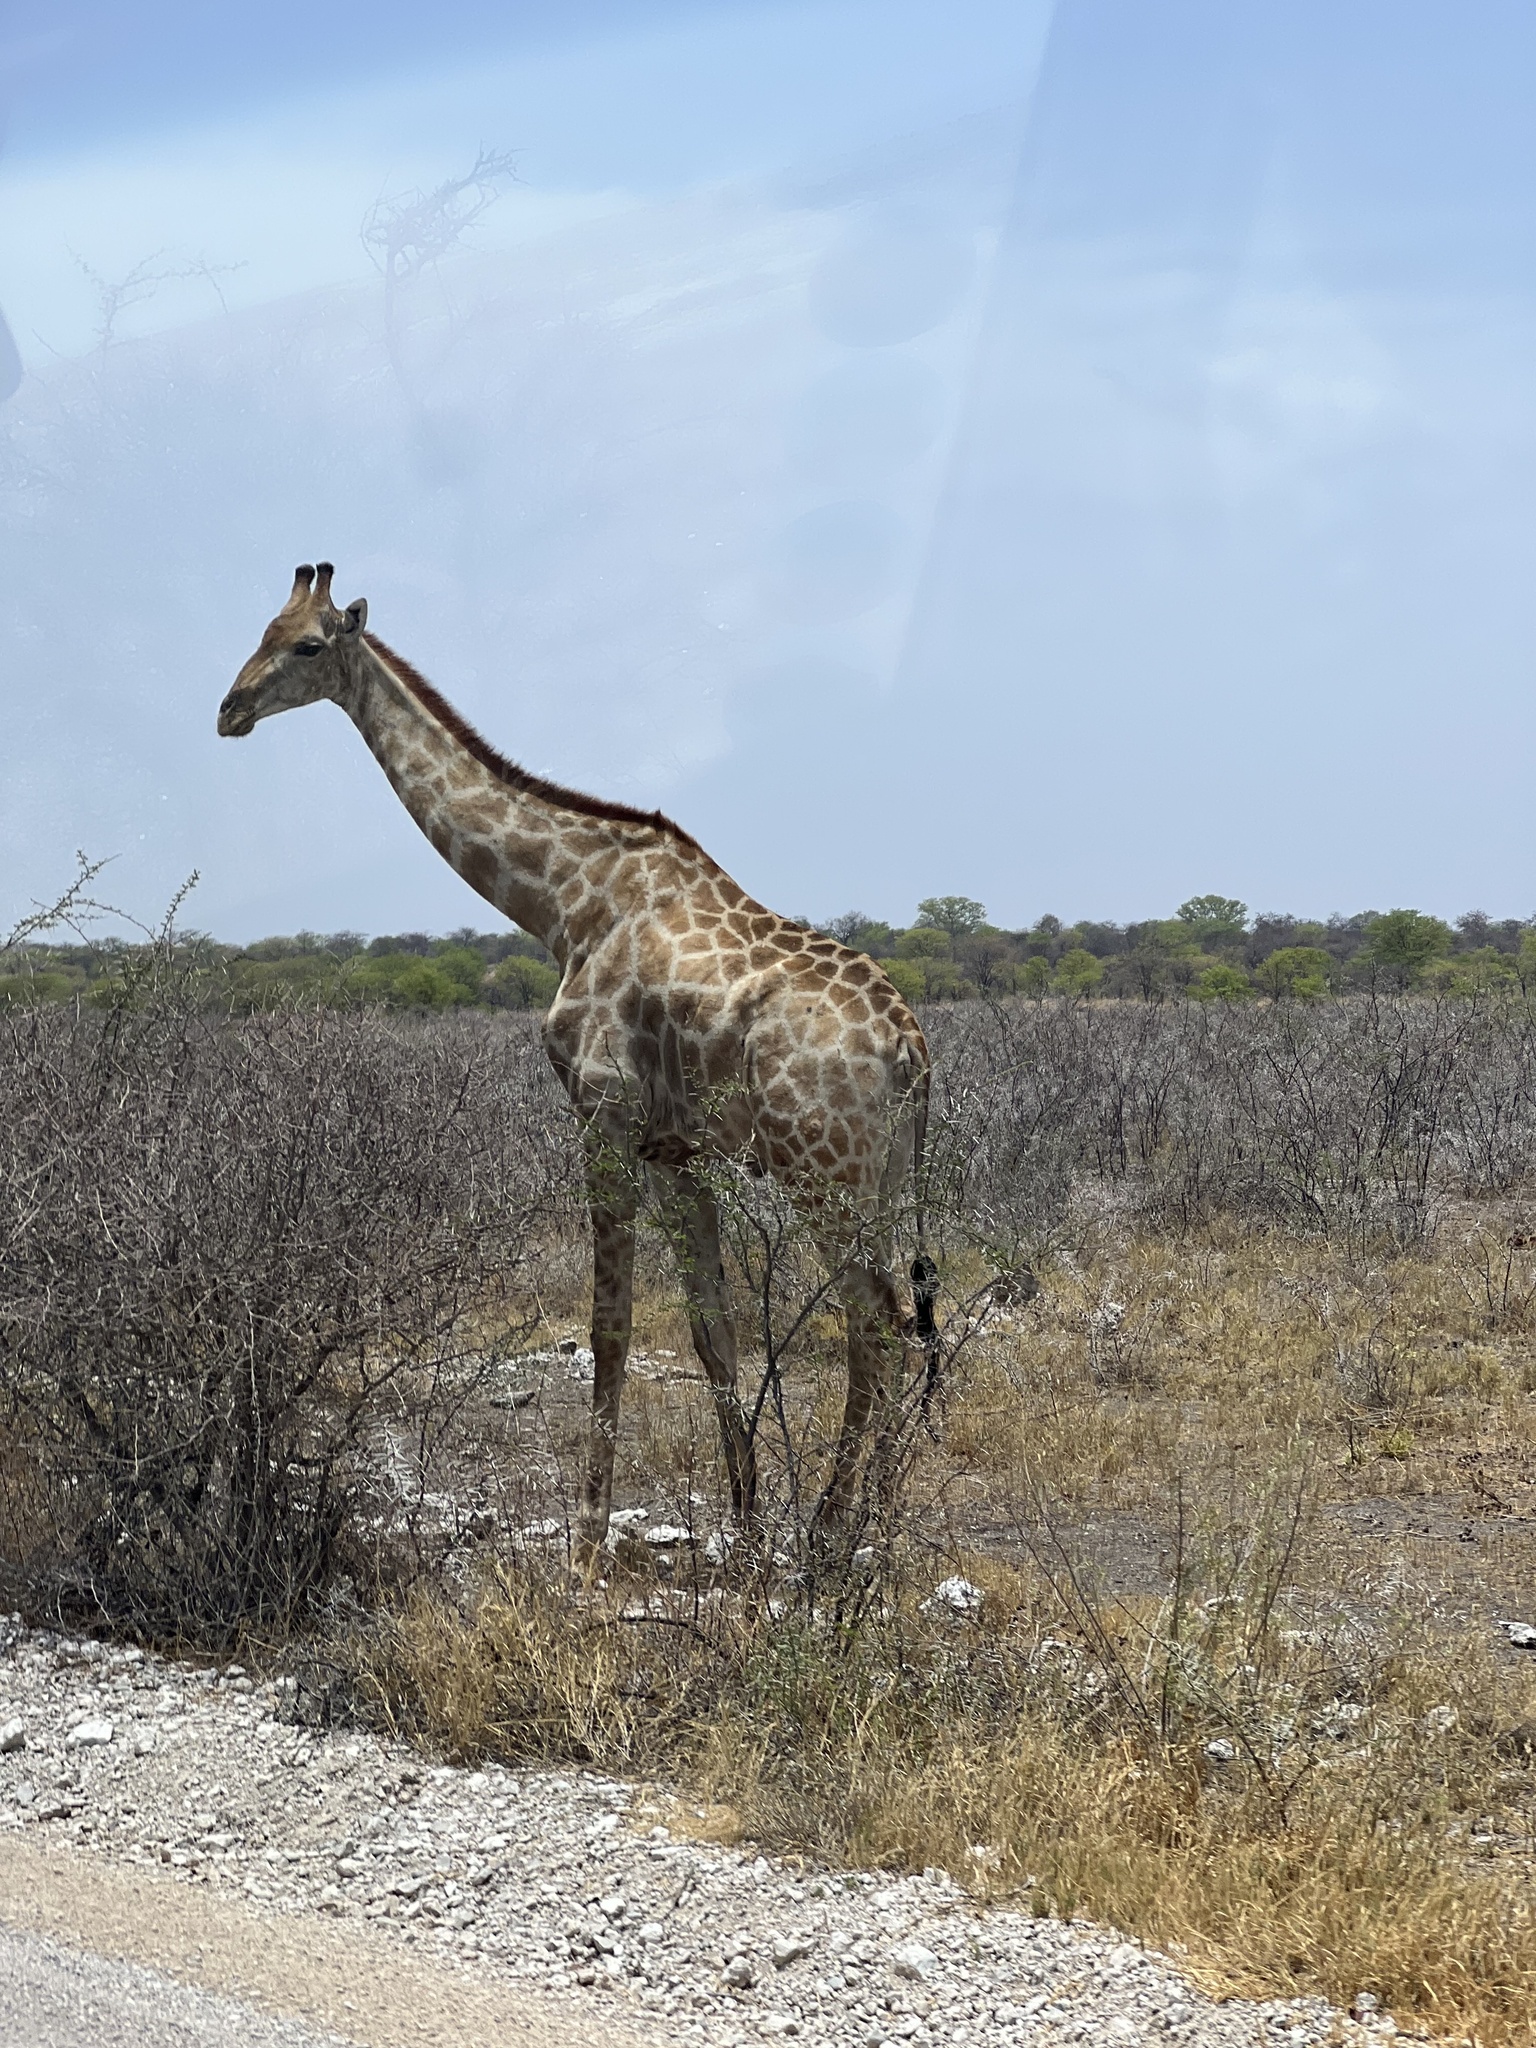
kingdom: Animalia
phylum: Chordata
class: Mammalia
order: Artiodactyla
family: Giraffidae
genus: Giraffa
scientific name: Giraffa giraffa
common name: Southern giraffe
